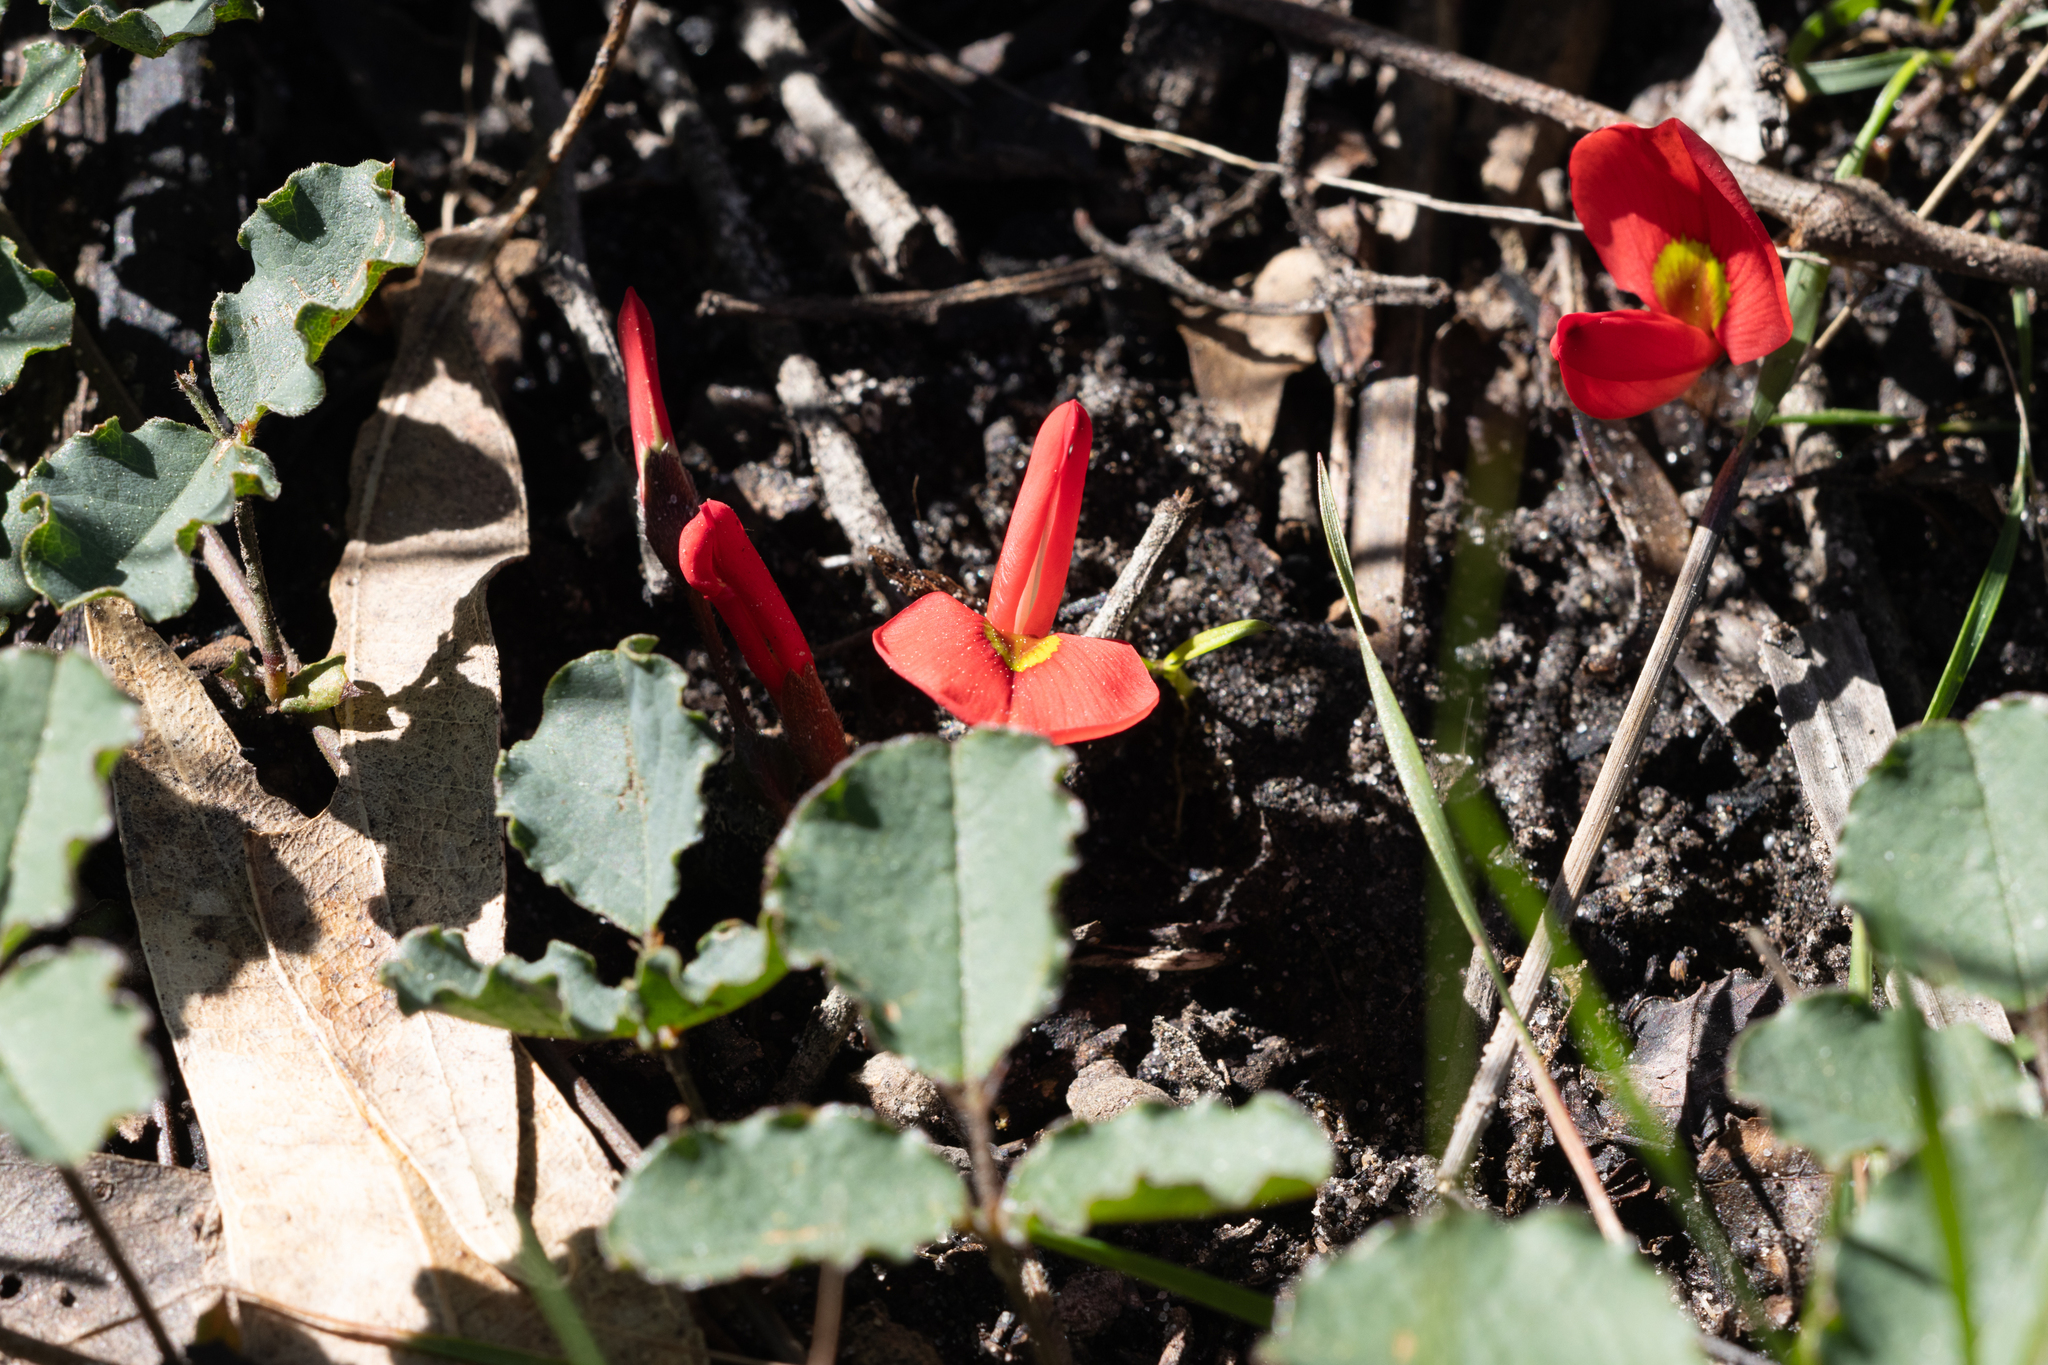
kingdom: Plantae
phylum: Tracheophyta
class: Magnoliopsida
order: Fabales
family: Fabaceae
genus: Kennedia
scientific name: Kennedia prostrata
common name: Running-postman
